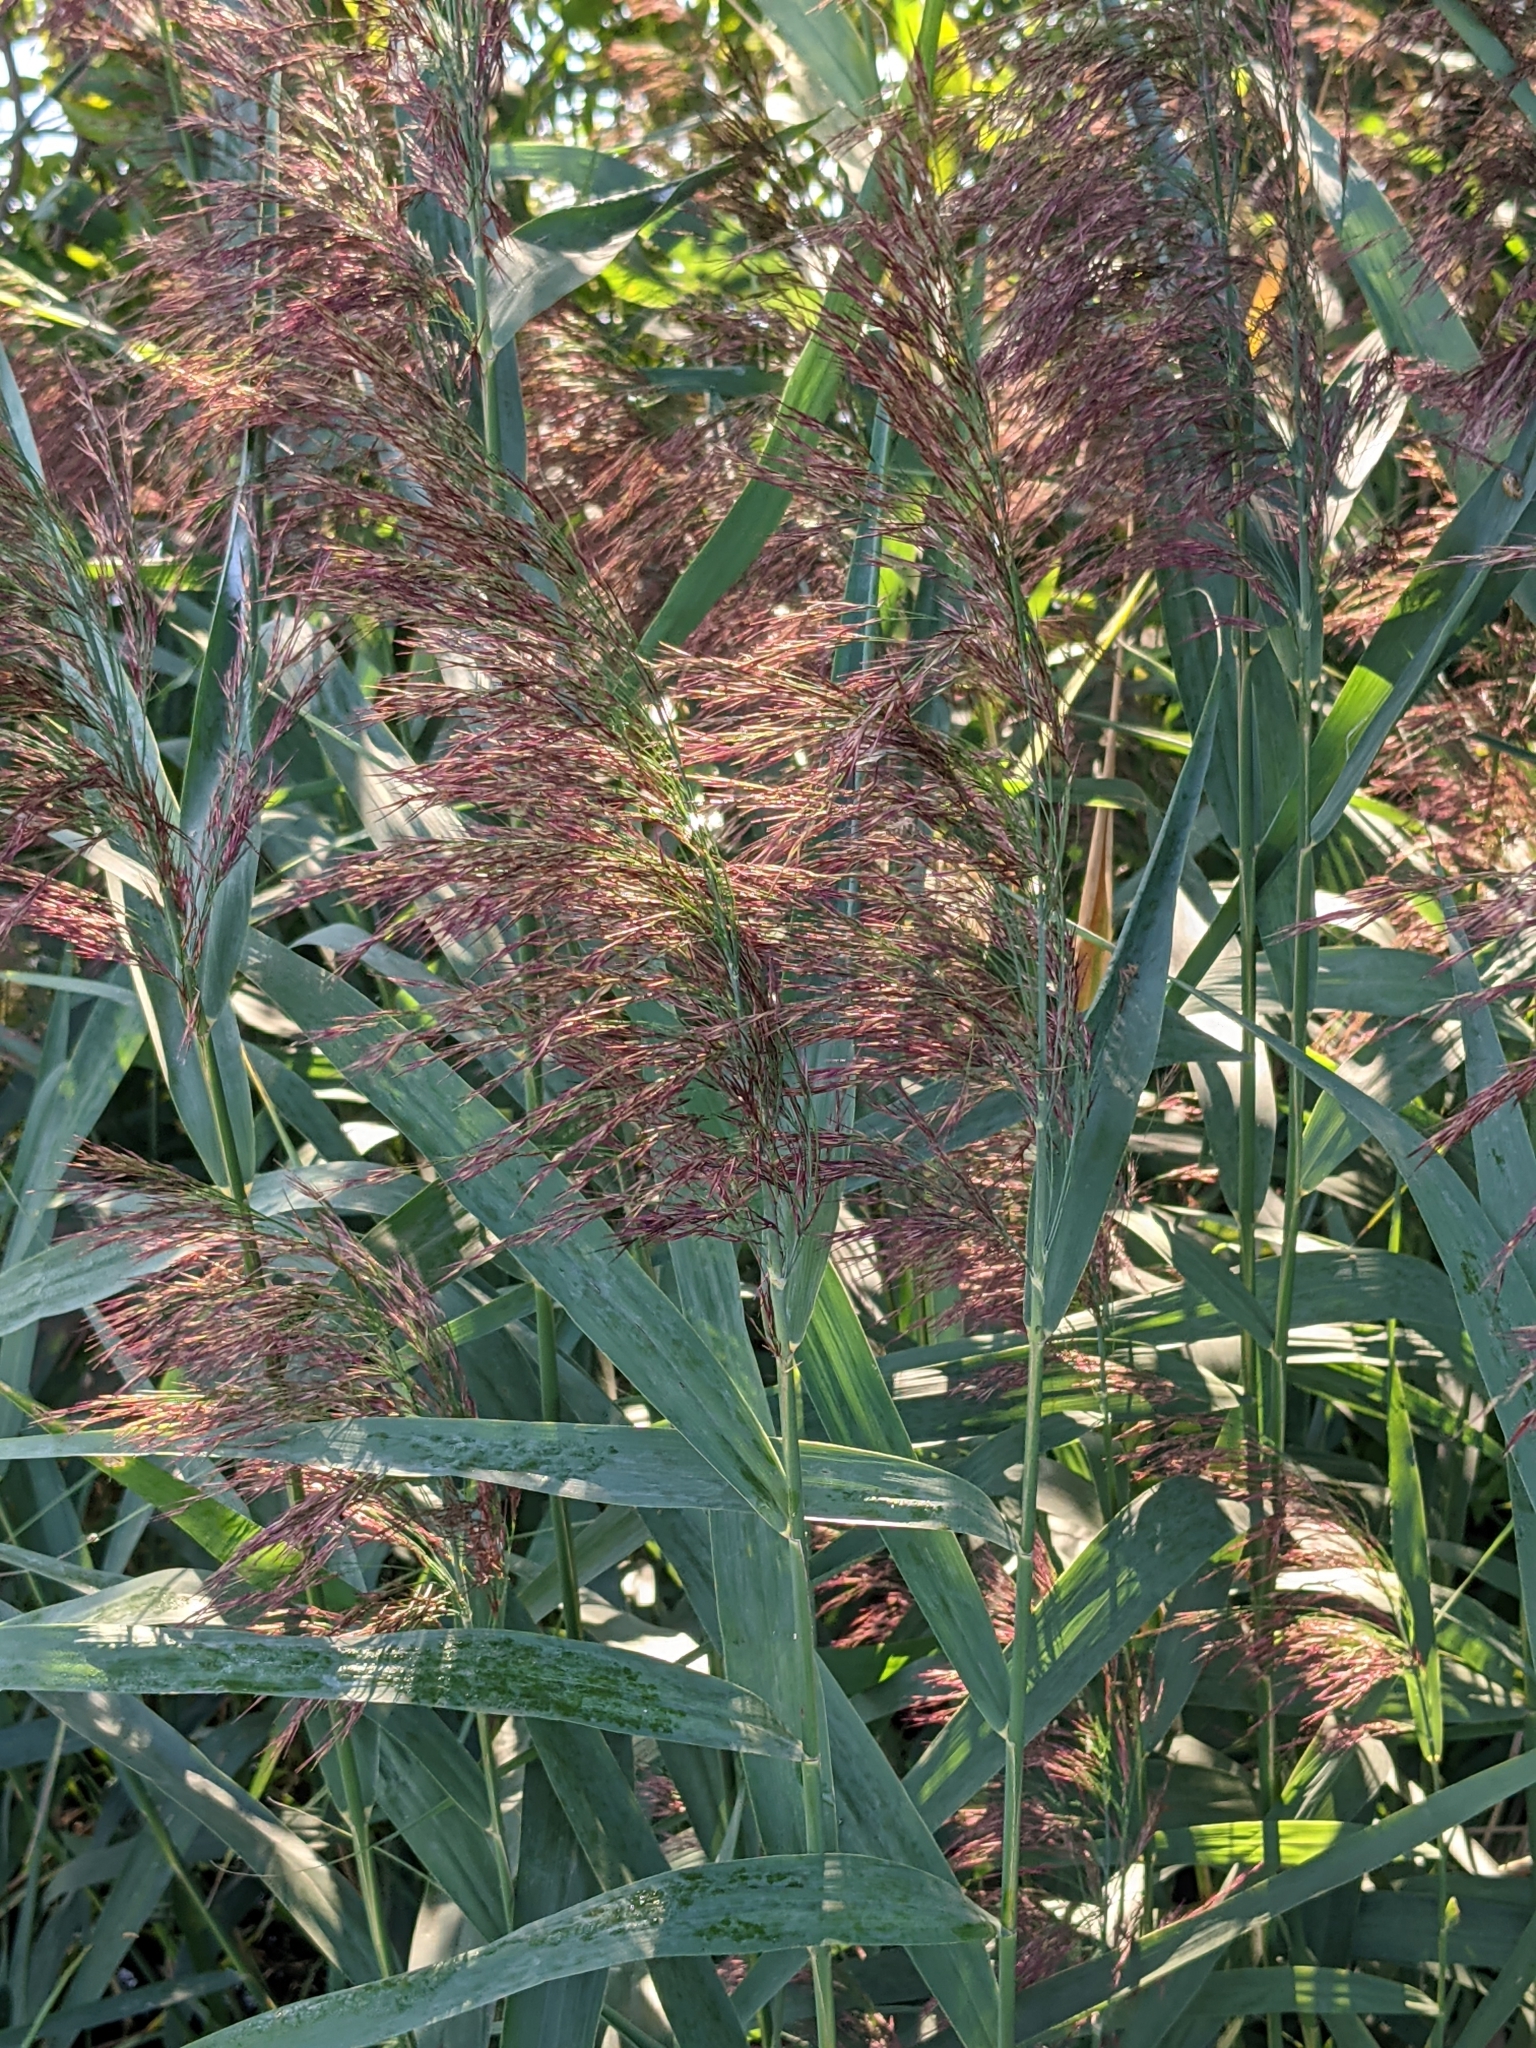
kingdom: Plantae
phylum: Tracheophyta
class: Liliopsida
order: Poales
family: Poaceae
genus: Phragmites
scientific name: Phragmites australis
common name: Common reed
